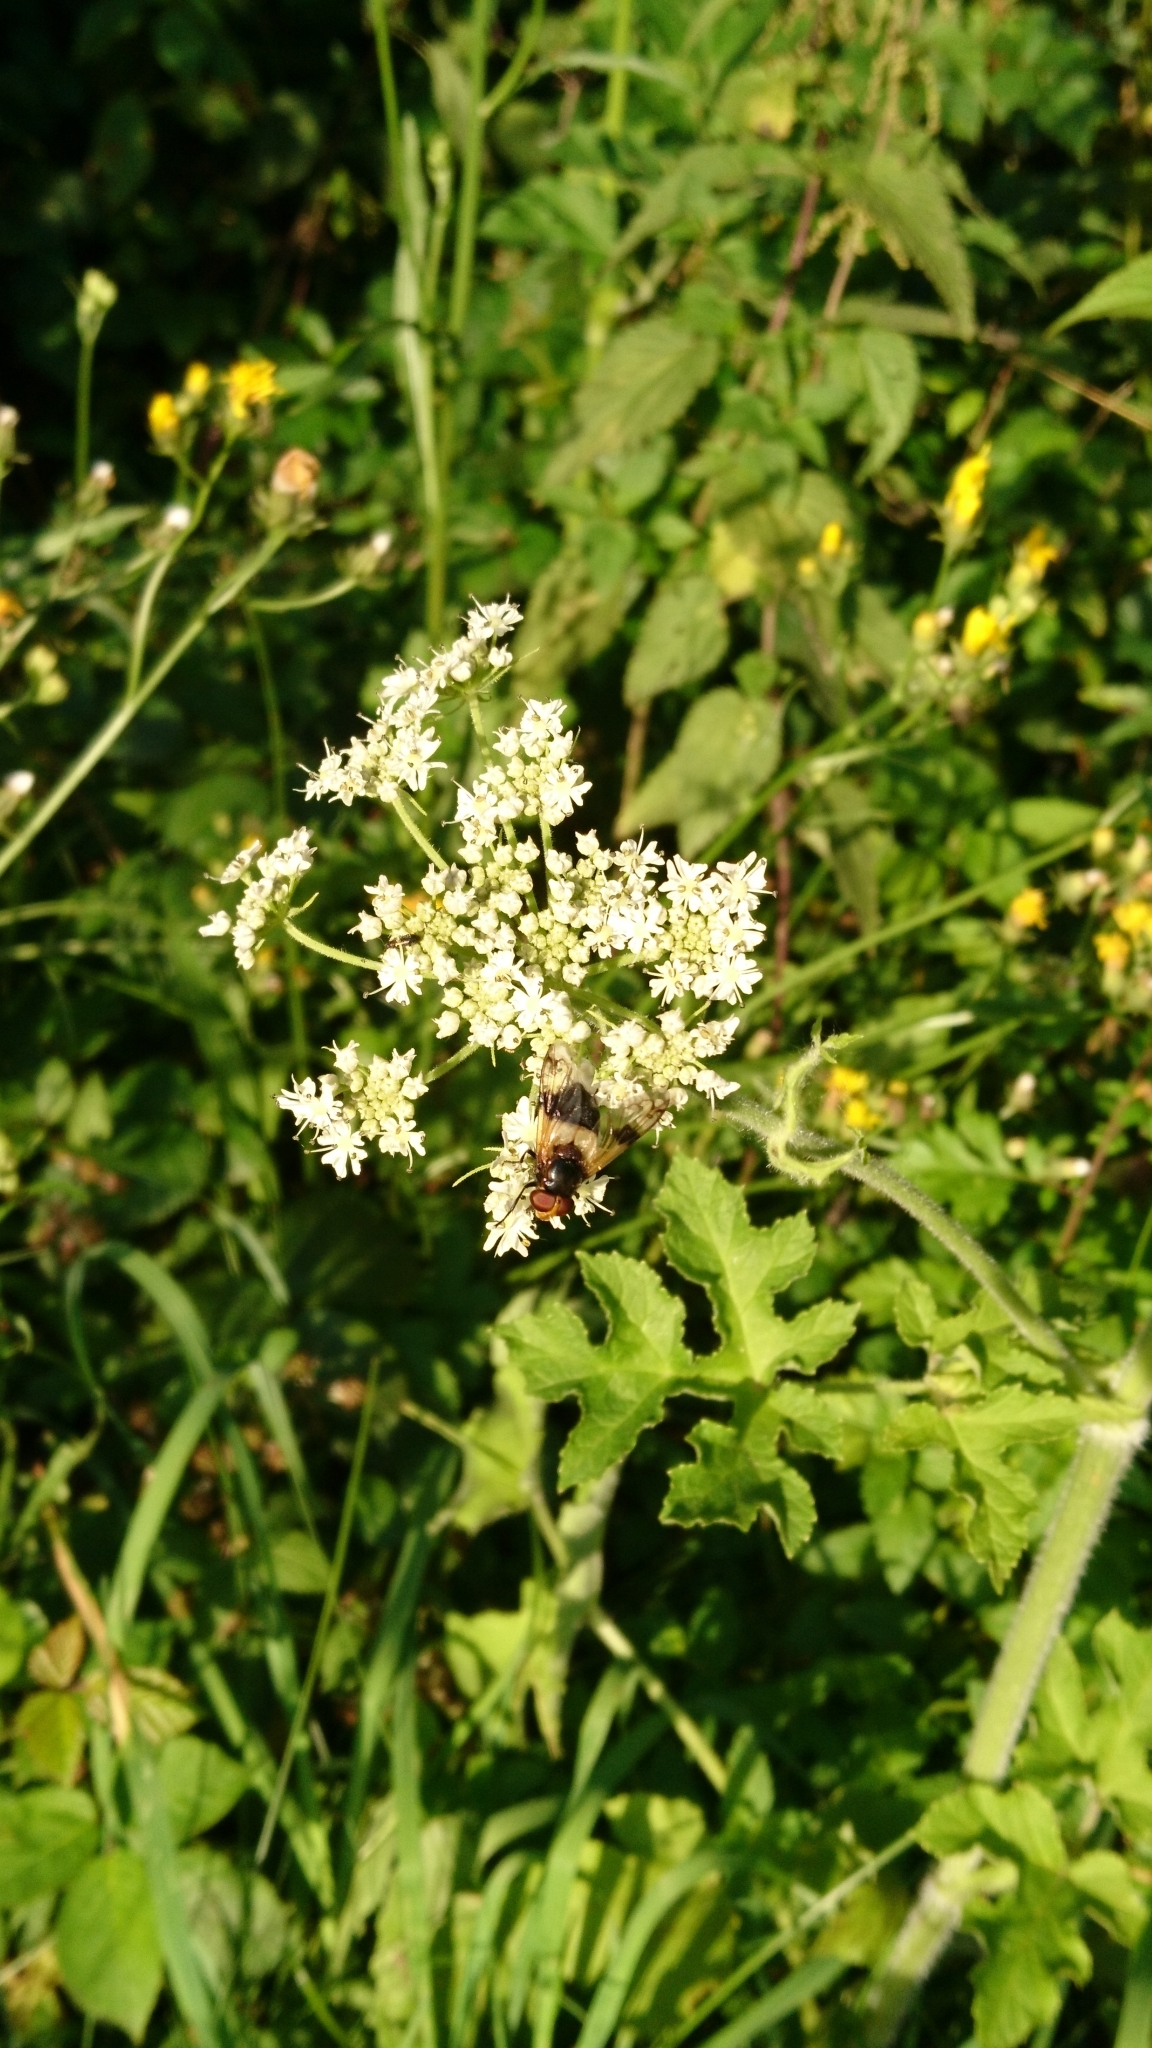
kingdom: Animalia
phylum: Arthropoda
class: Insecta
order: Diptera
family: Syrphidae
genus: Volucella
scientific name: Volucella pellucens
